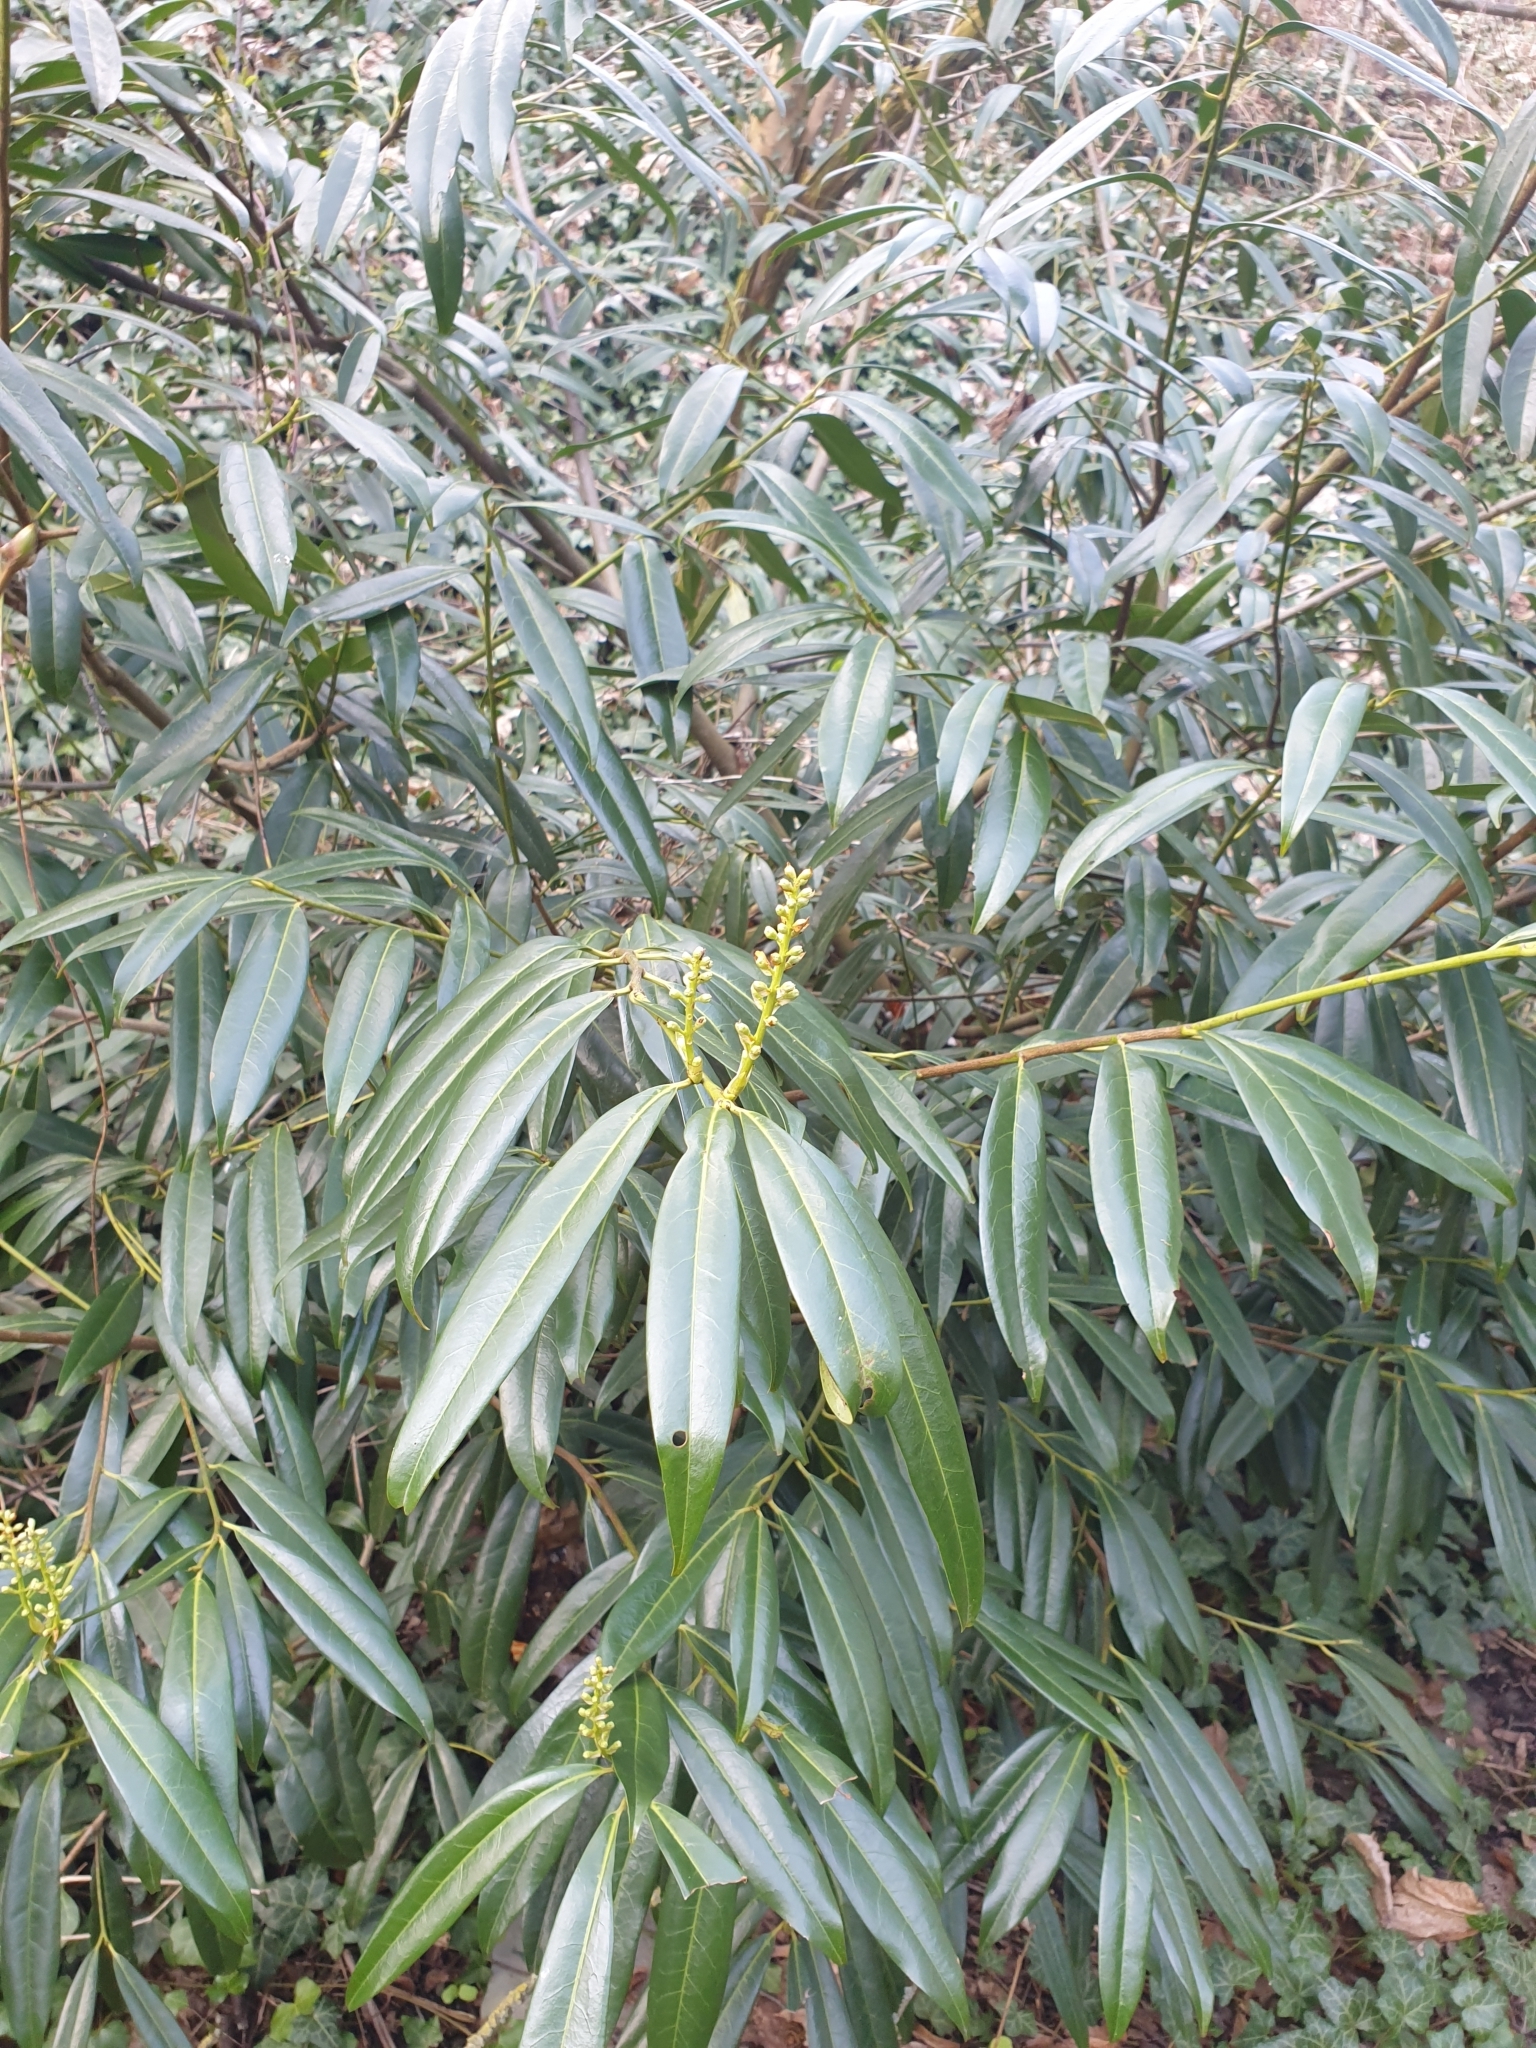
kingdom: Plantae
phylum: Tracheophyta
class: Magnoliopsida
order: Rosales
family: Rosaceae
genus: Prunus
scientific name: Prunus laurocerasus
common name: Cherry laurel
